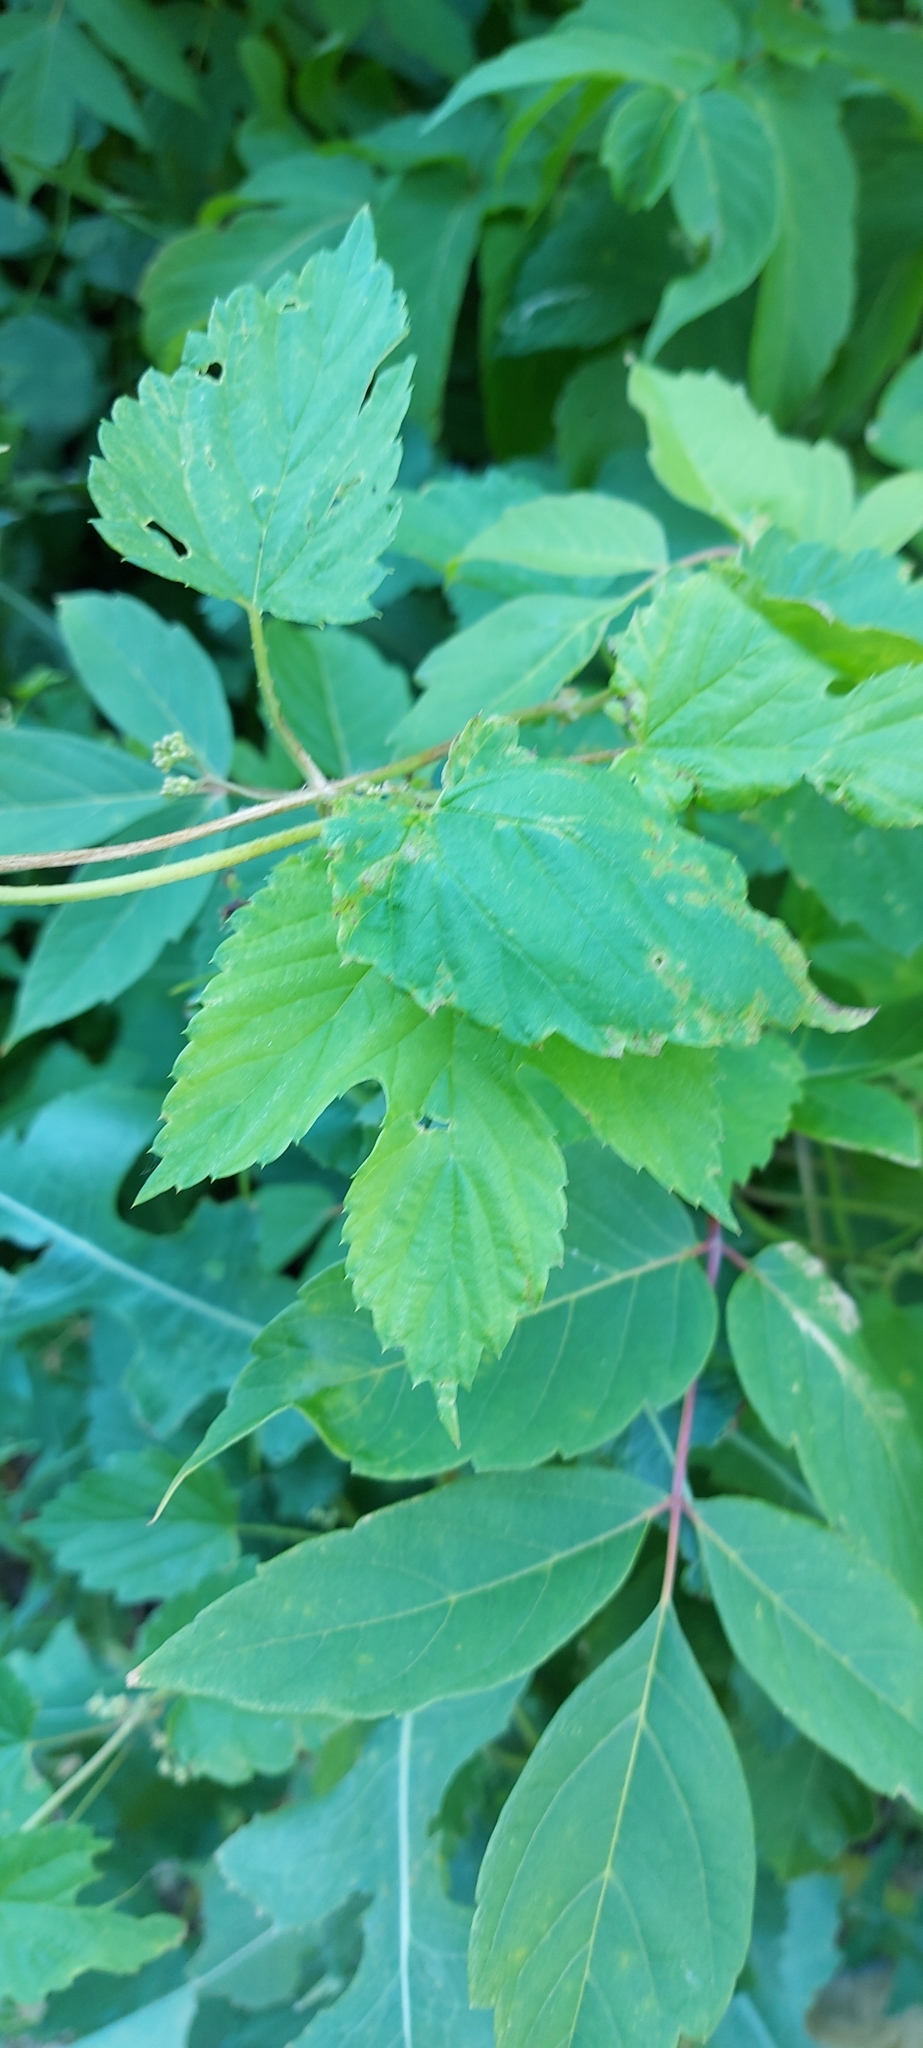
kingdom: Plantae
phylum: Tracheophyta
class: Magnoliopsida
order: Rosales
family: Cannabaceae
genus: Humulus
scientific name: Humulus lupulus
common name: Hop
